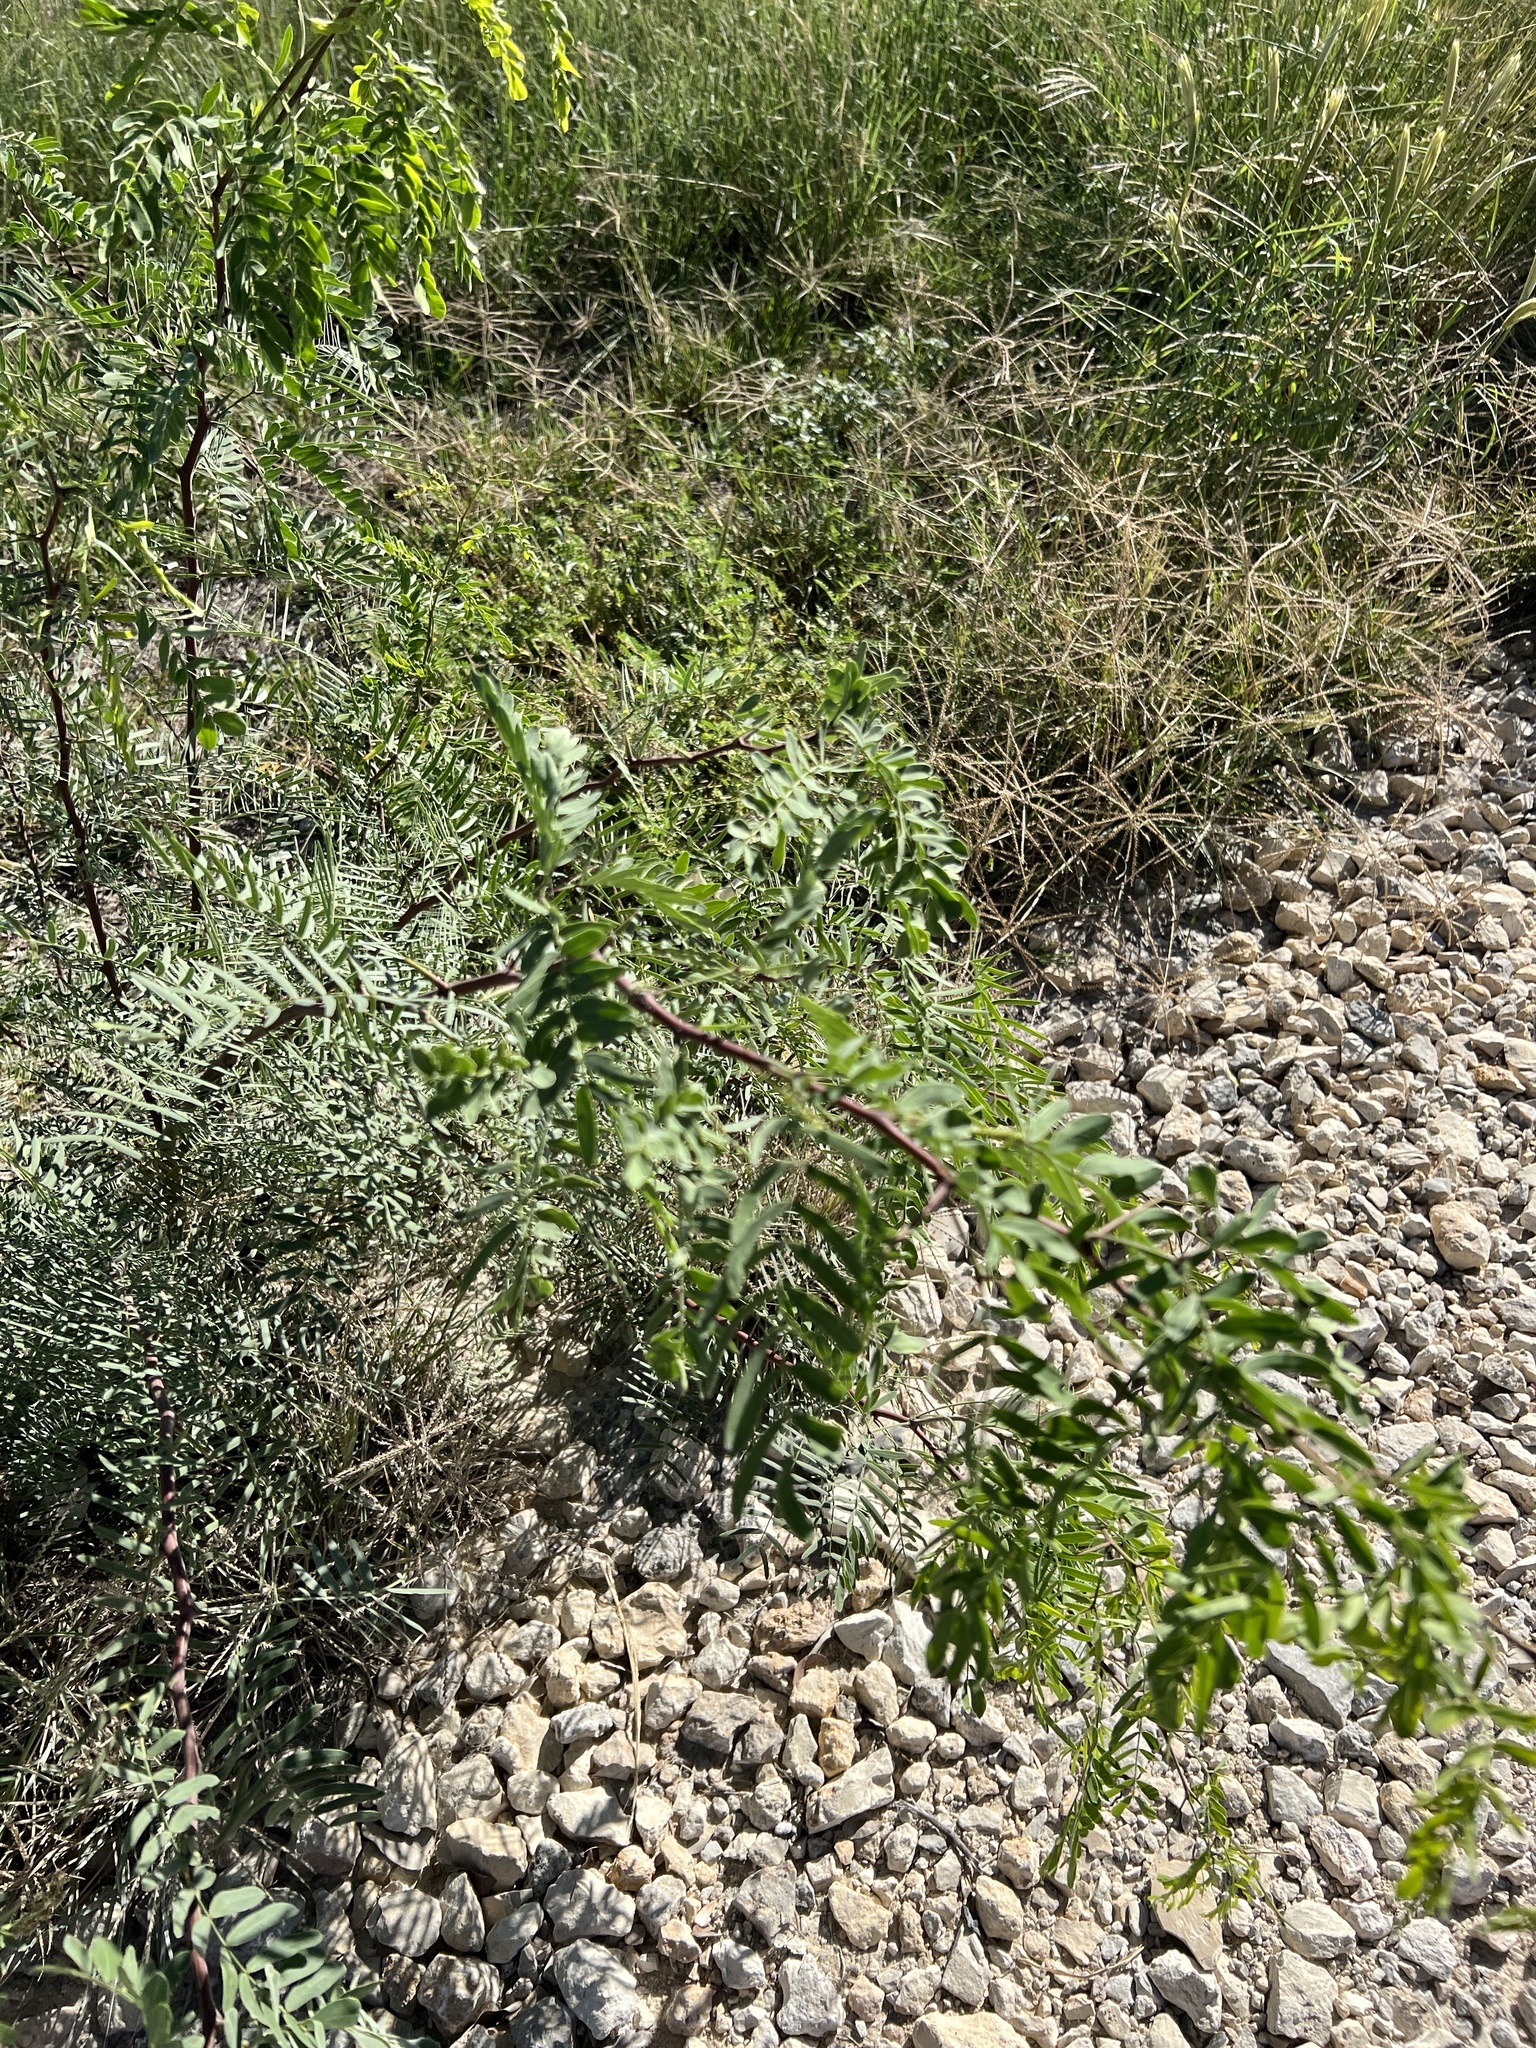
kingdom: Plantae
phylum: Tracheophyta
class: Magnoliopsida
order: Fabales
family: Fabaceae
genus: Prosopis
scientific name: Prosopis glandulosa
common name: Honey mesquite
